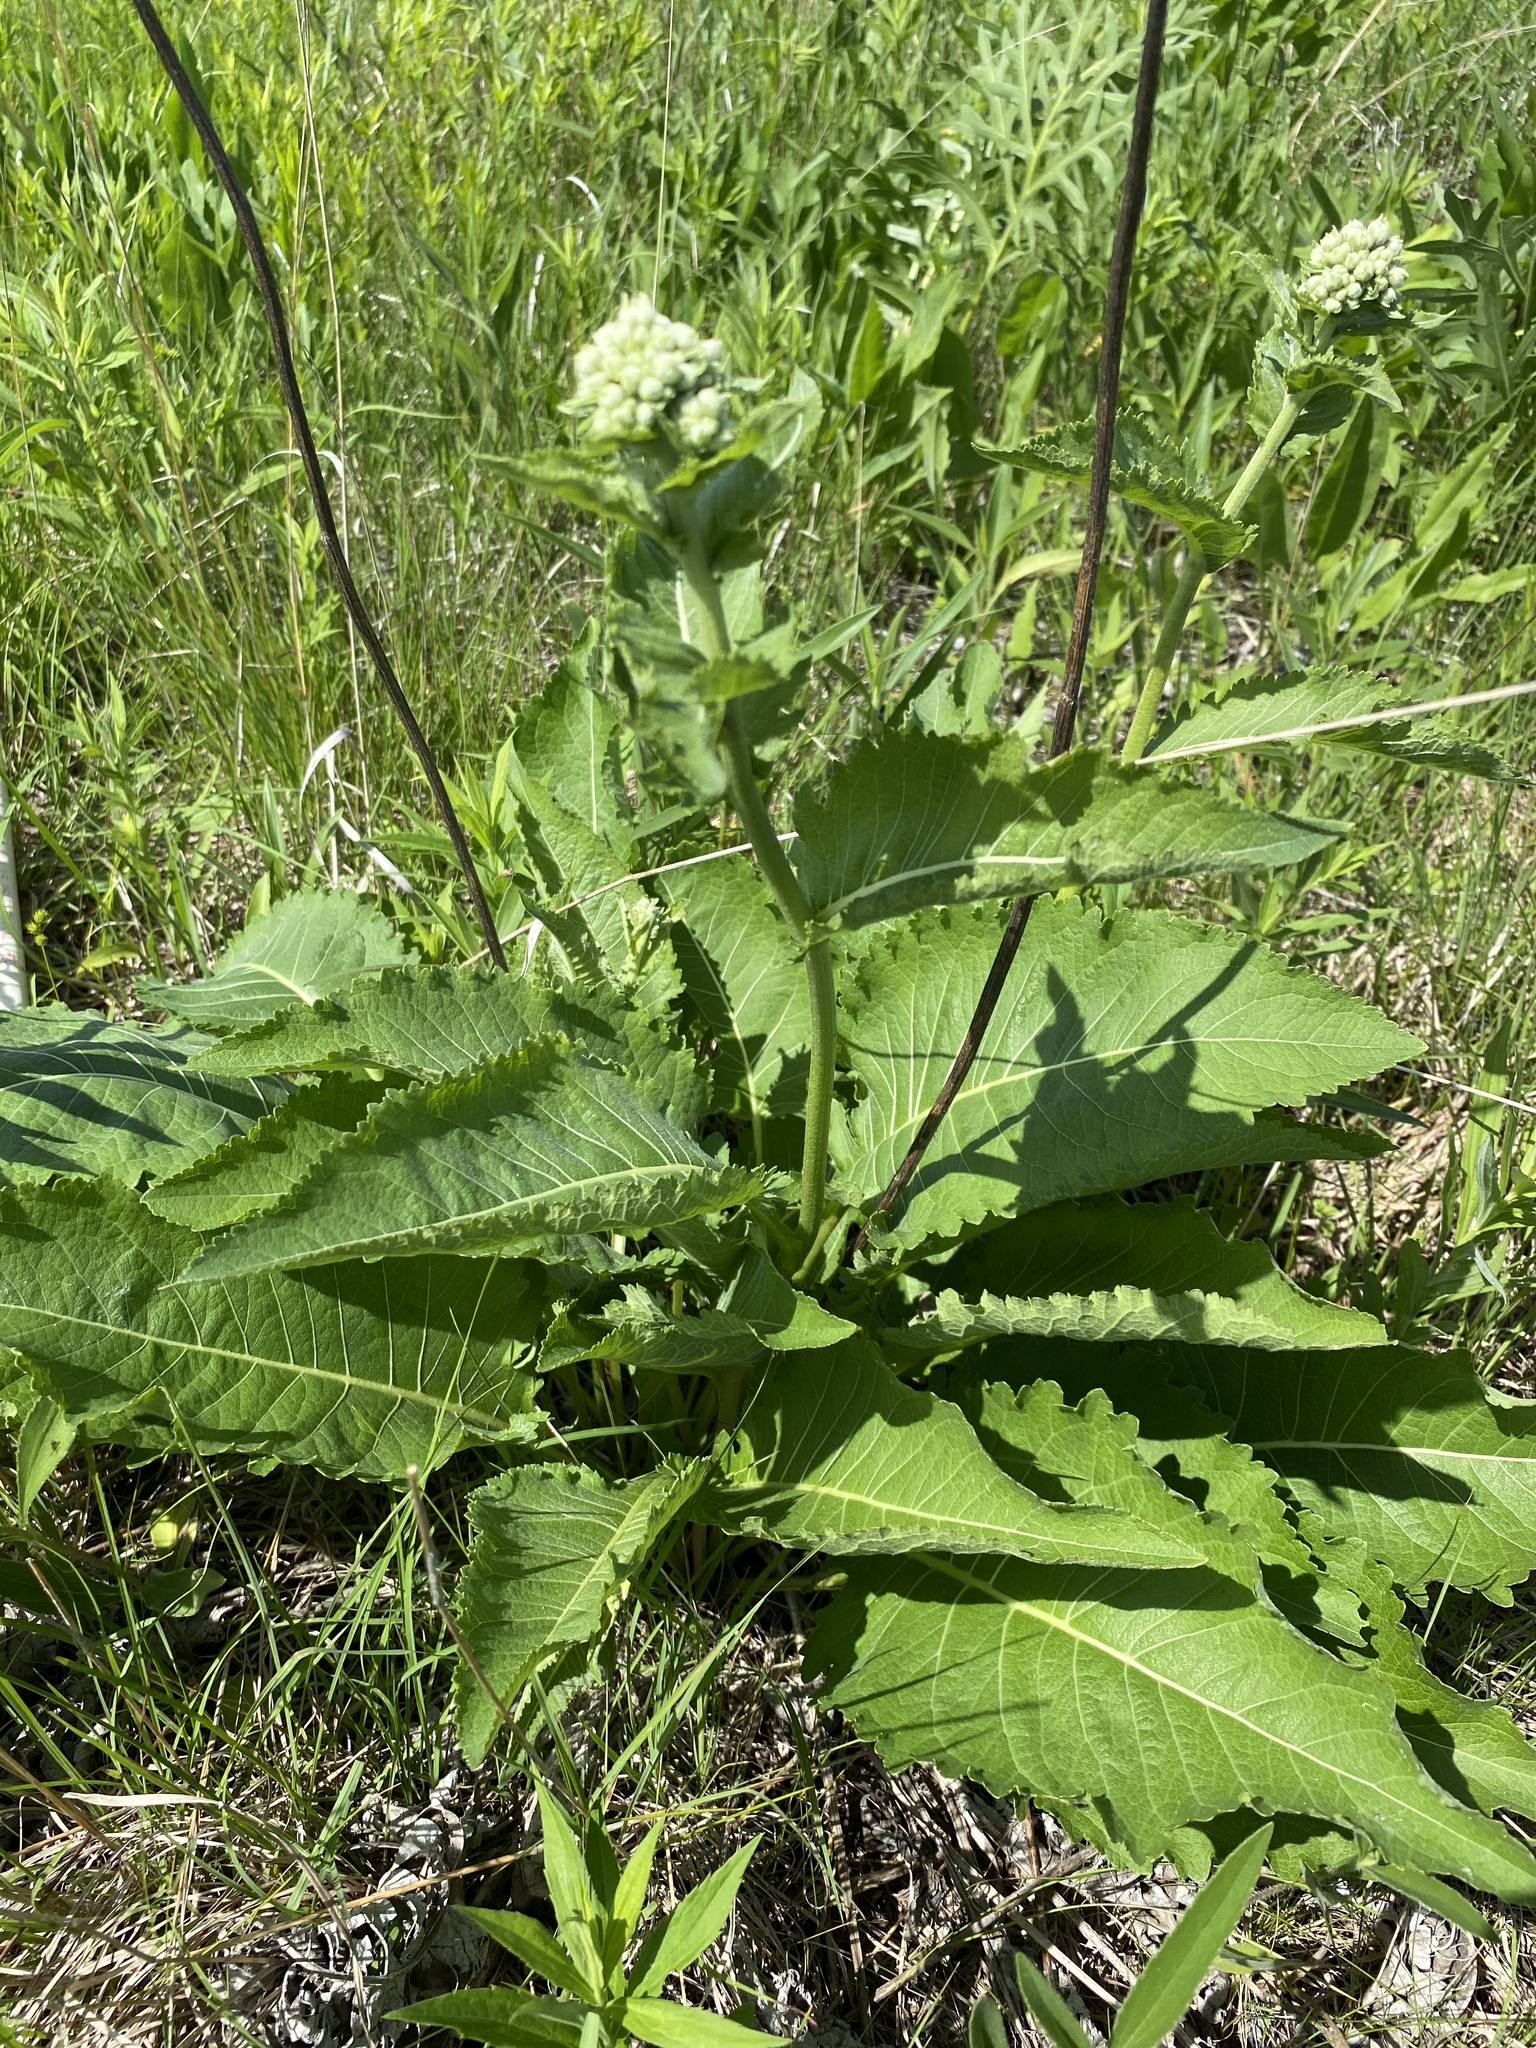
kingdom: Plantae
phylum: Tracheophyta
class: Magnoliopsida
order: Asterales
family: Asteraceae
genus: Parthenium
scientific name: Parthenium integrifolium
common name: American feverfew
